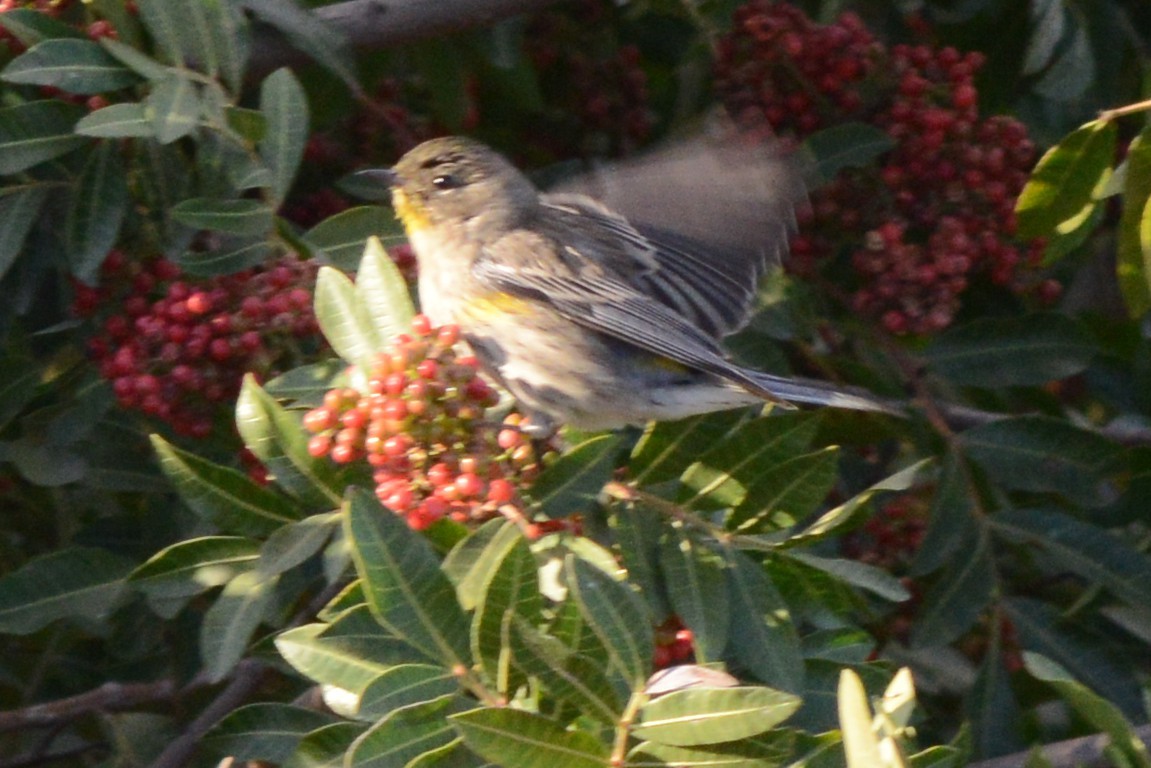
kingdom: Animalia
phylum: Chordata
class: Aves
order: Passeriformes
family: Parulidae
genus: Setophaga
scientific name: Setophaga auduboni
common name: Audubon's warbler
